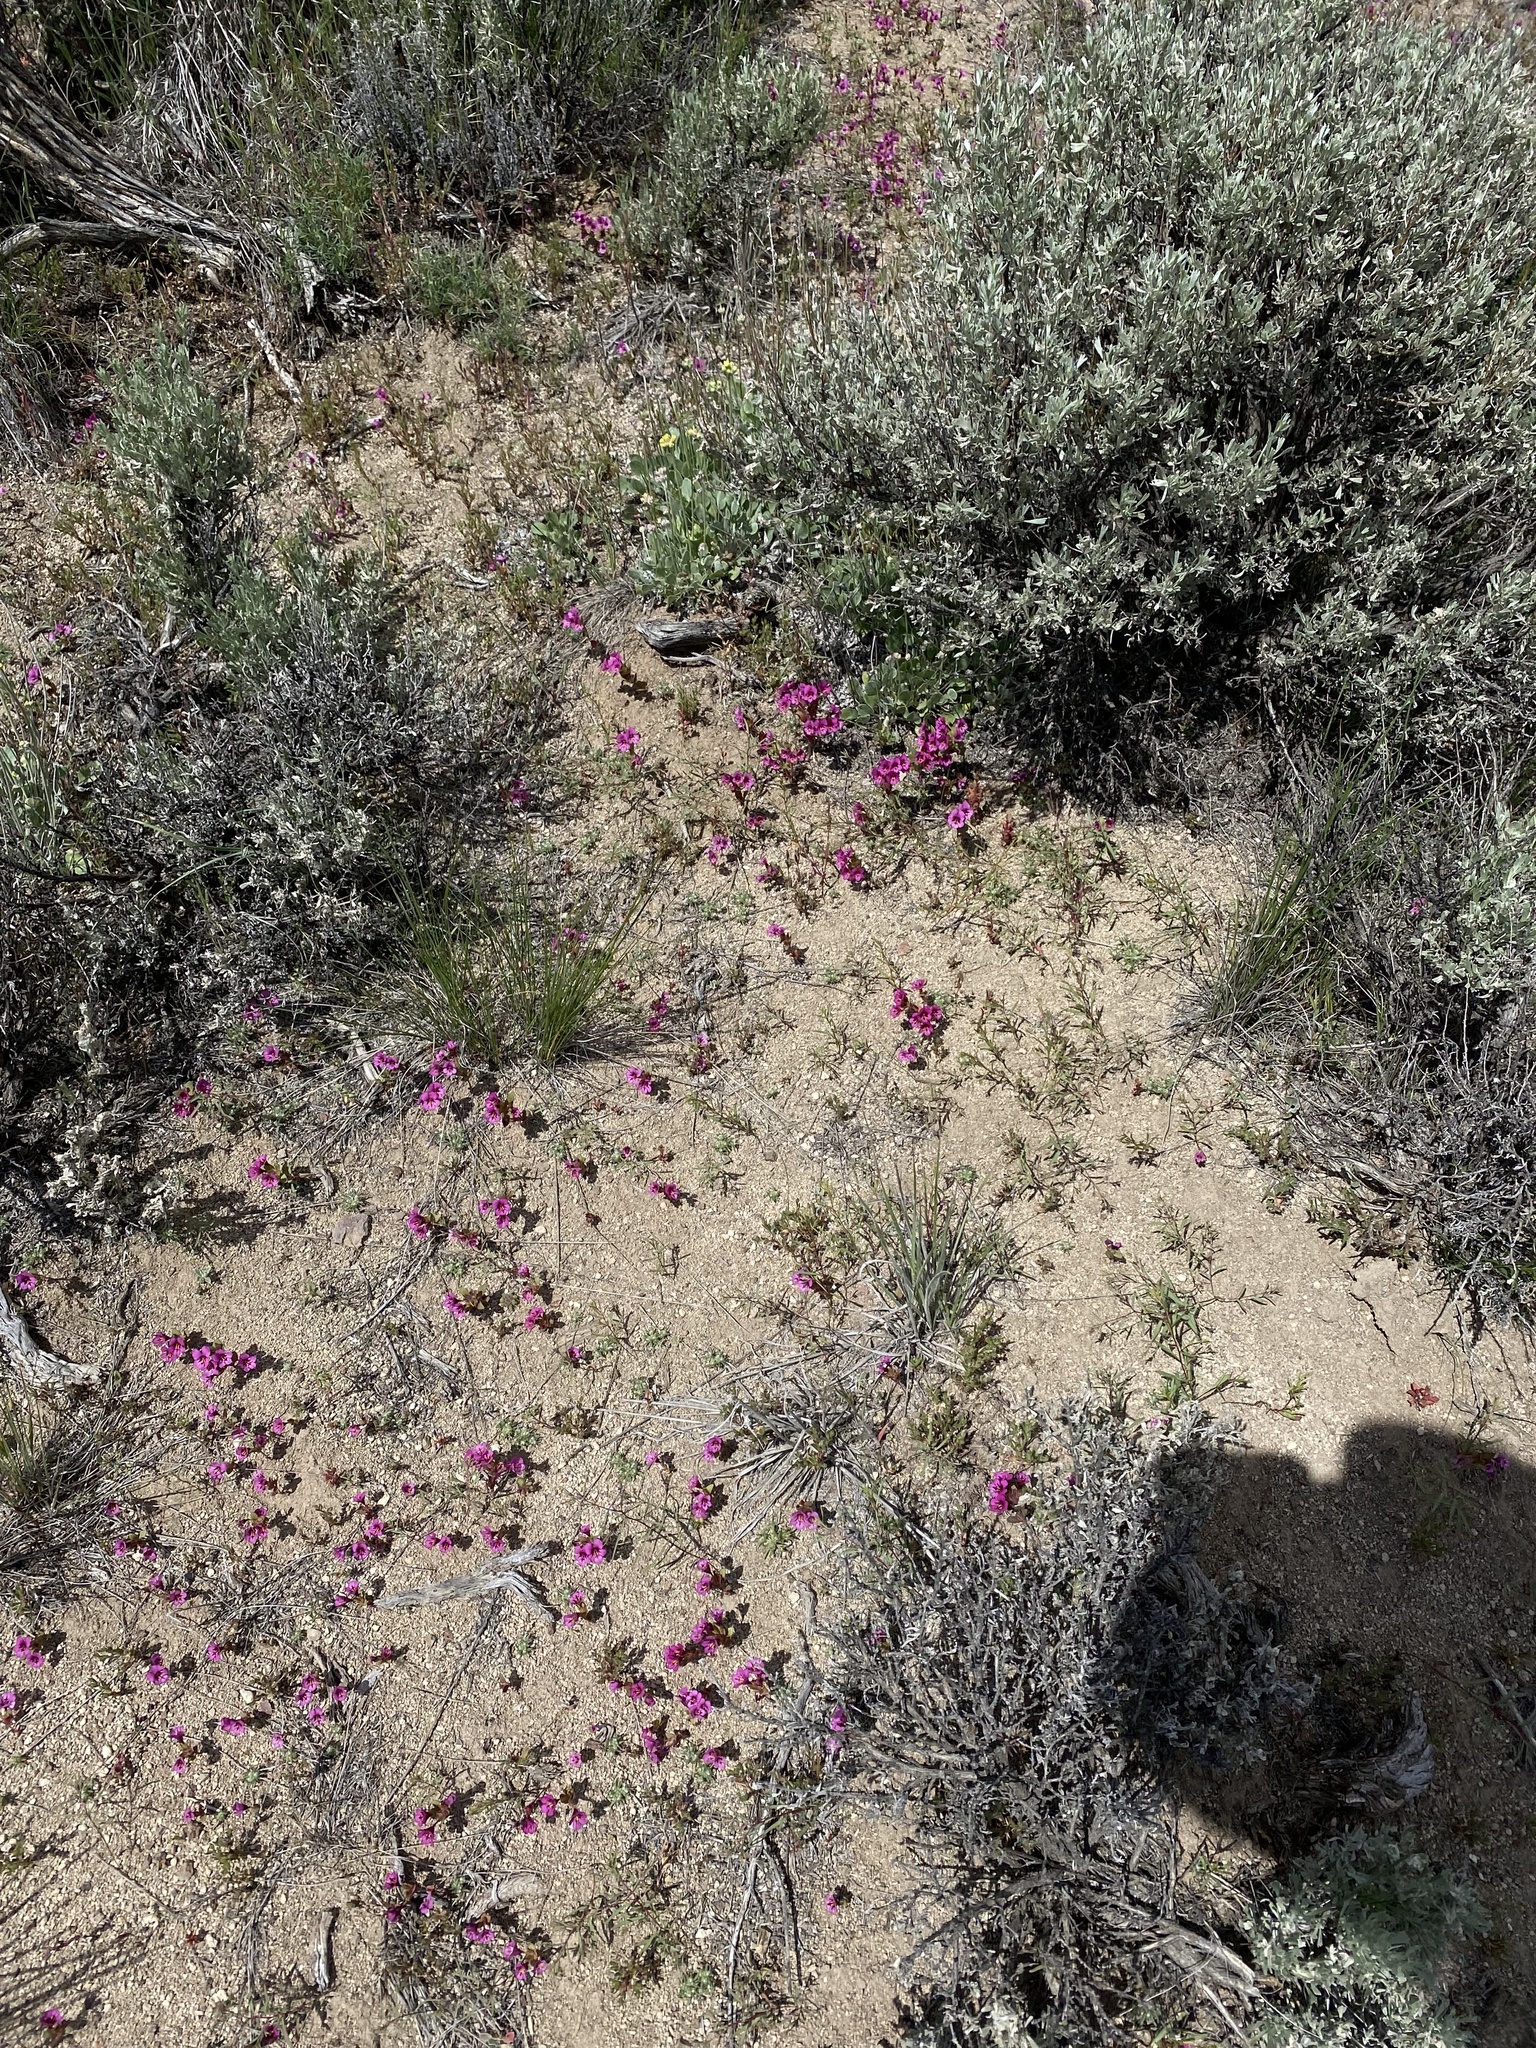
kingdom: Plantae
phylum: Tracheophyta
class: Magnoliopsida
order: Lamiales
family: Phrymaceae
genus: Diplacus
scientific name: Diplacus nanus
